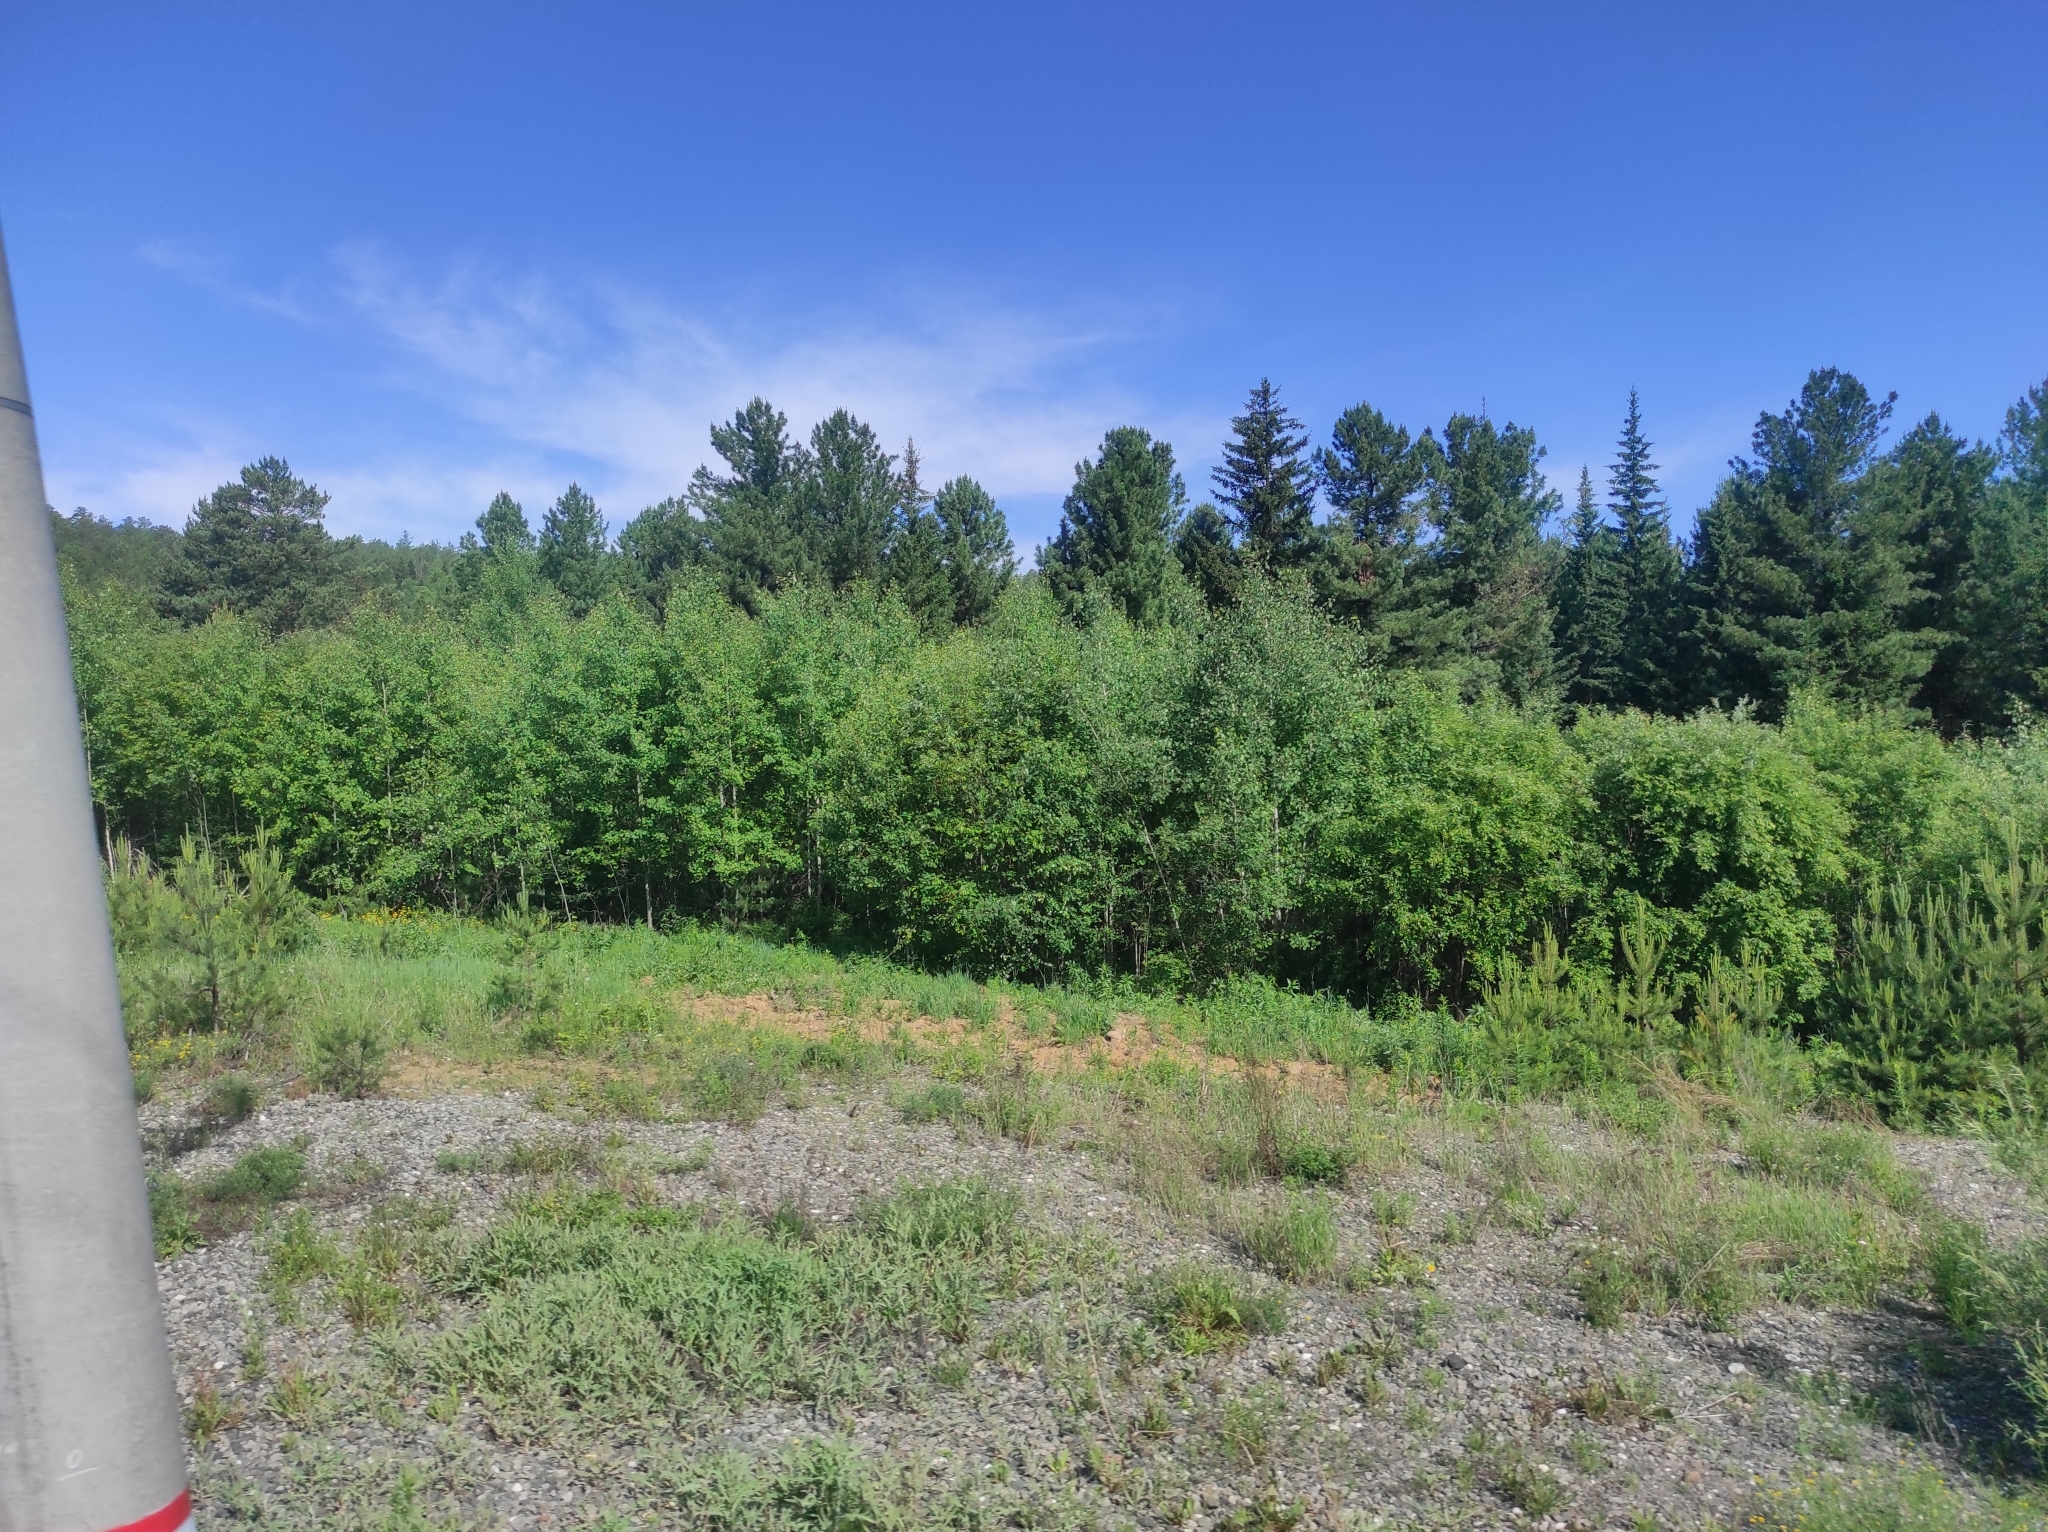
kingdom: Plantae
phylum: Tracheophyta
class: Magnoliopsida
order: Malpighiales
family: Salicaceae
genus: Populus
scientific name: Populus tremula
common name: European aspen
